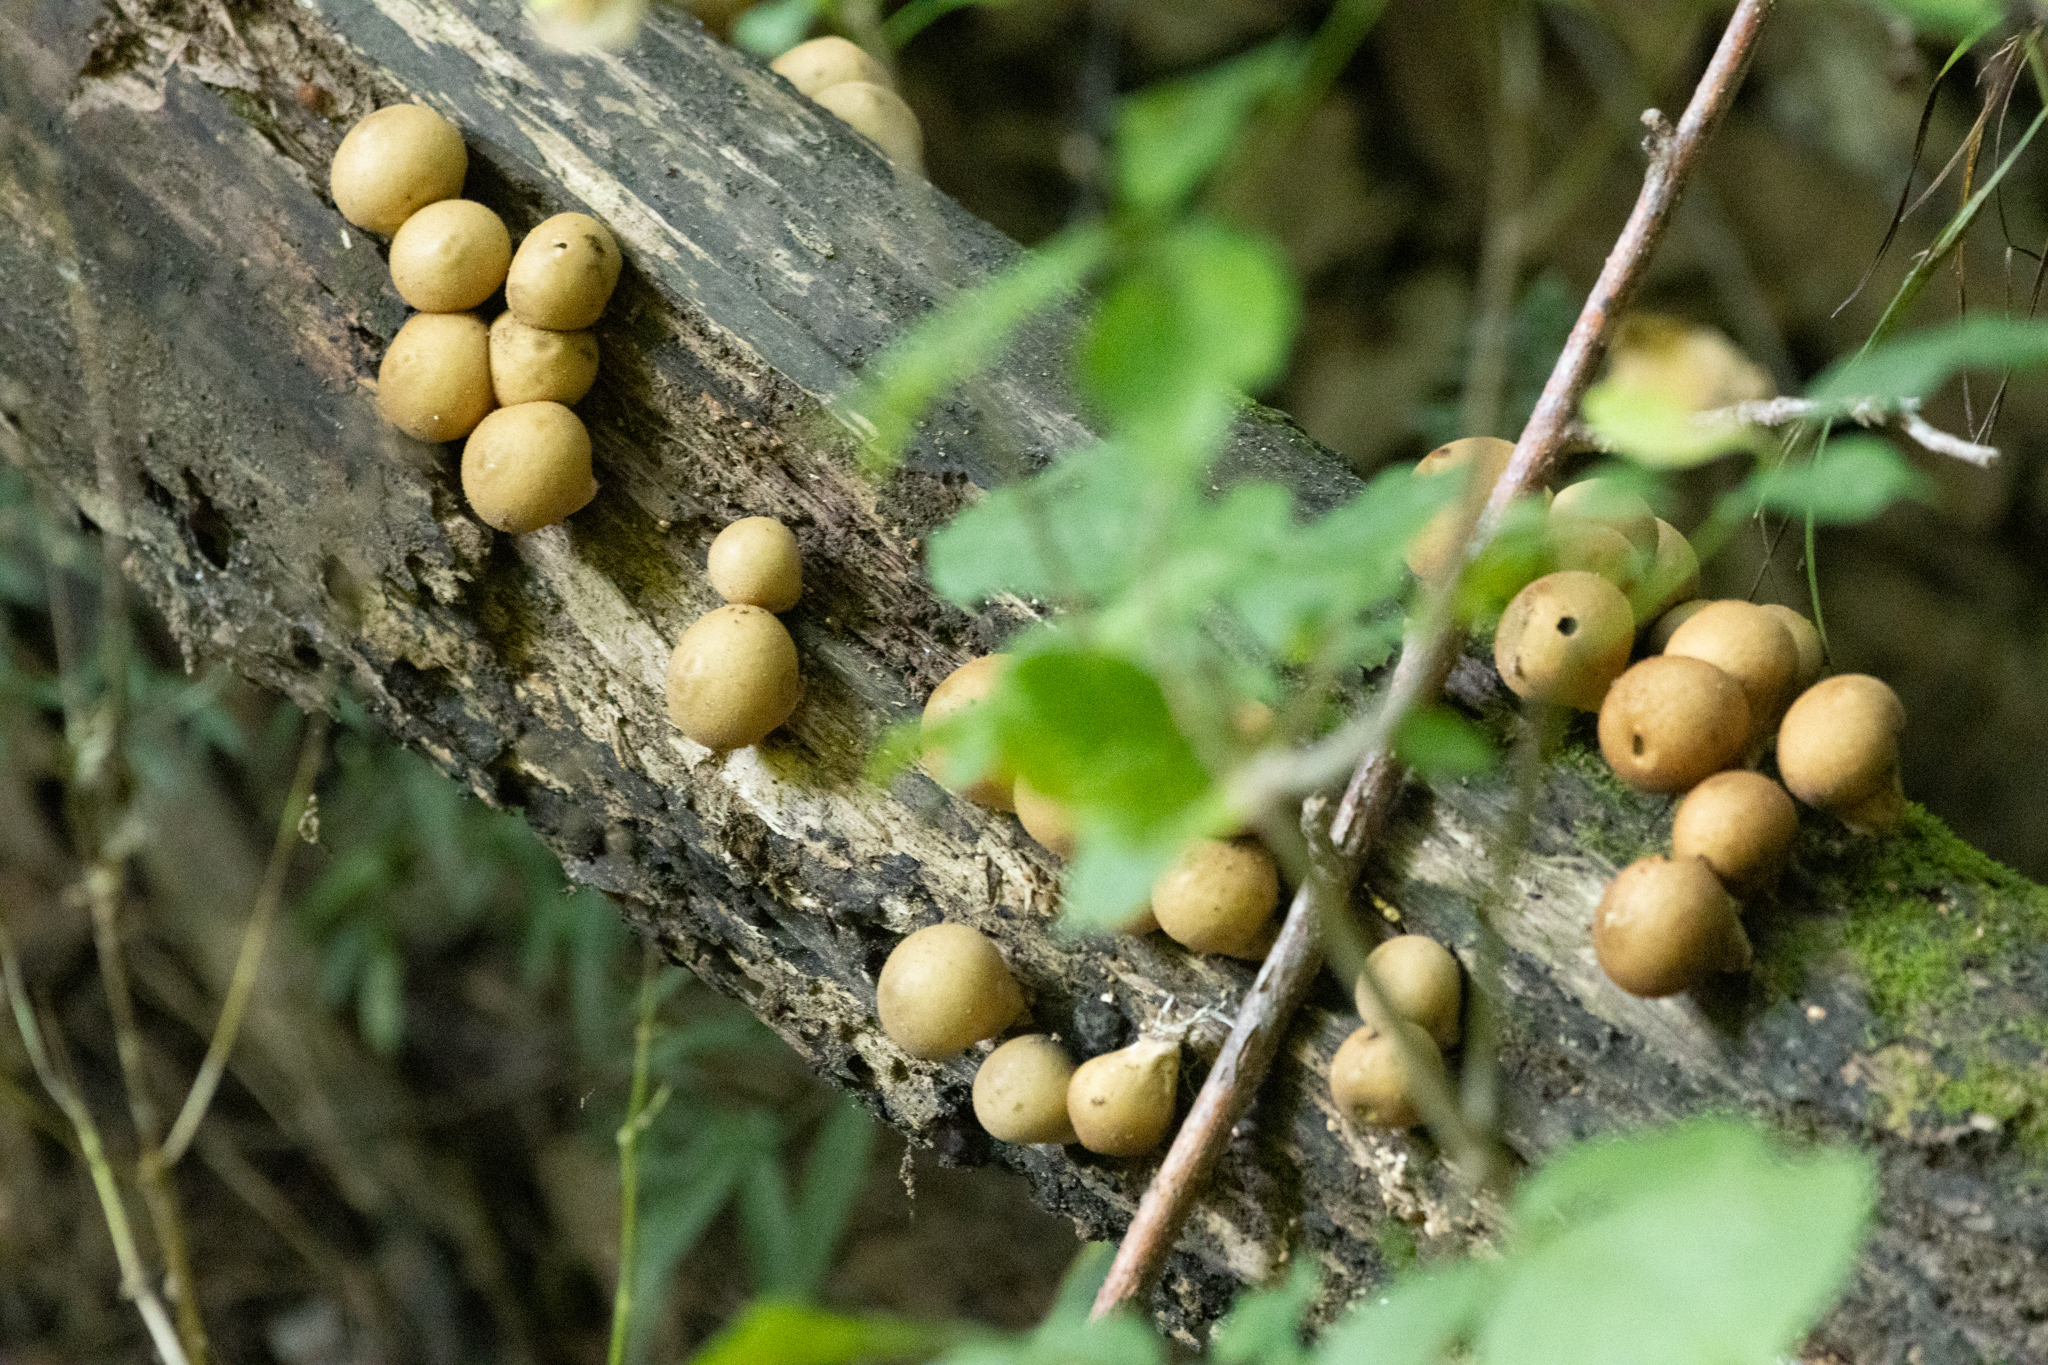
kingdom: Fungi
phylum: Basidiomycota
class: Agaricomycetes
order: Agaricales
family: Lycoperdaceae
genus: Apioperdon
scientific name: Apioperdon pyriforme
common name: Pear-shaped puffball
